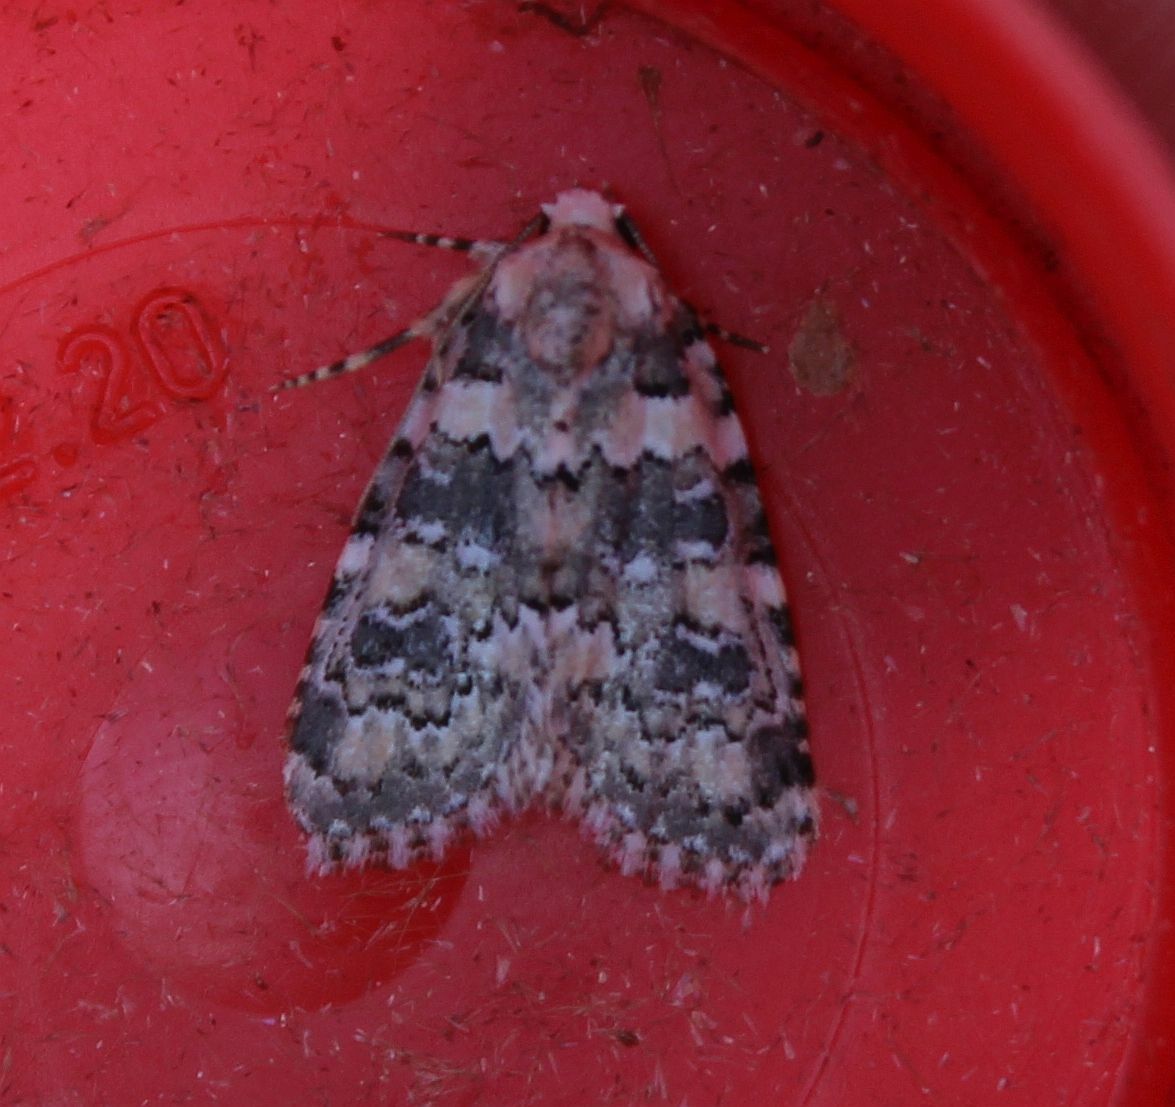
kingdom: Animalia
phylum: Arthropoda
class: Insecta
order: Lepidoptera
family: Noctuidae
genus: Bryophila
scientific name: Bryophila domestica
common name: Marbled beauty
